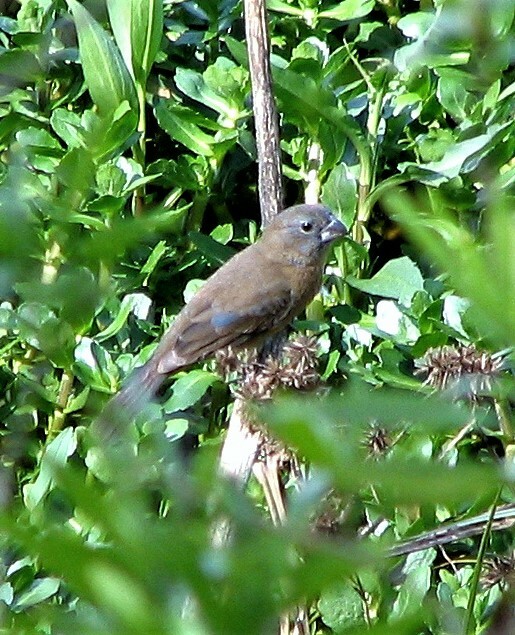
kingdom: Animalia
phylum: Chordata
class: Aves
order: Passeriformes
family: Cardinalidae
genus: Cyanoloxia
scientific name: Cyanoloxia glaucocaerulea
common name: Glaucous-blue grosbeak
